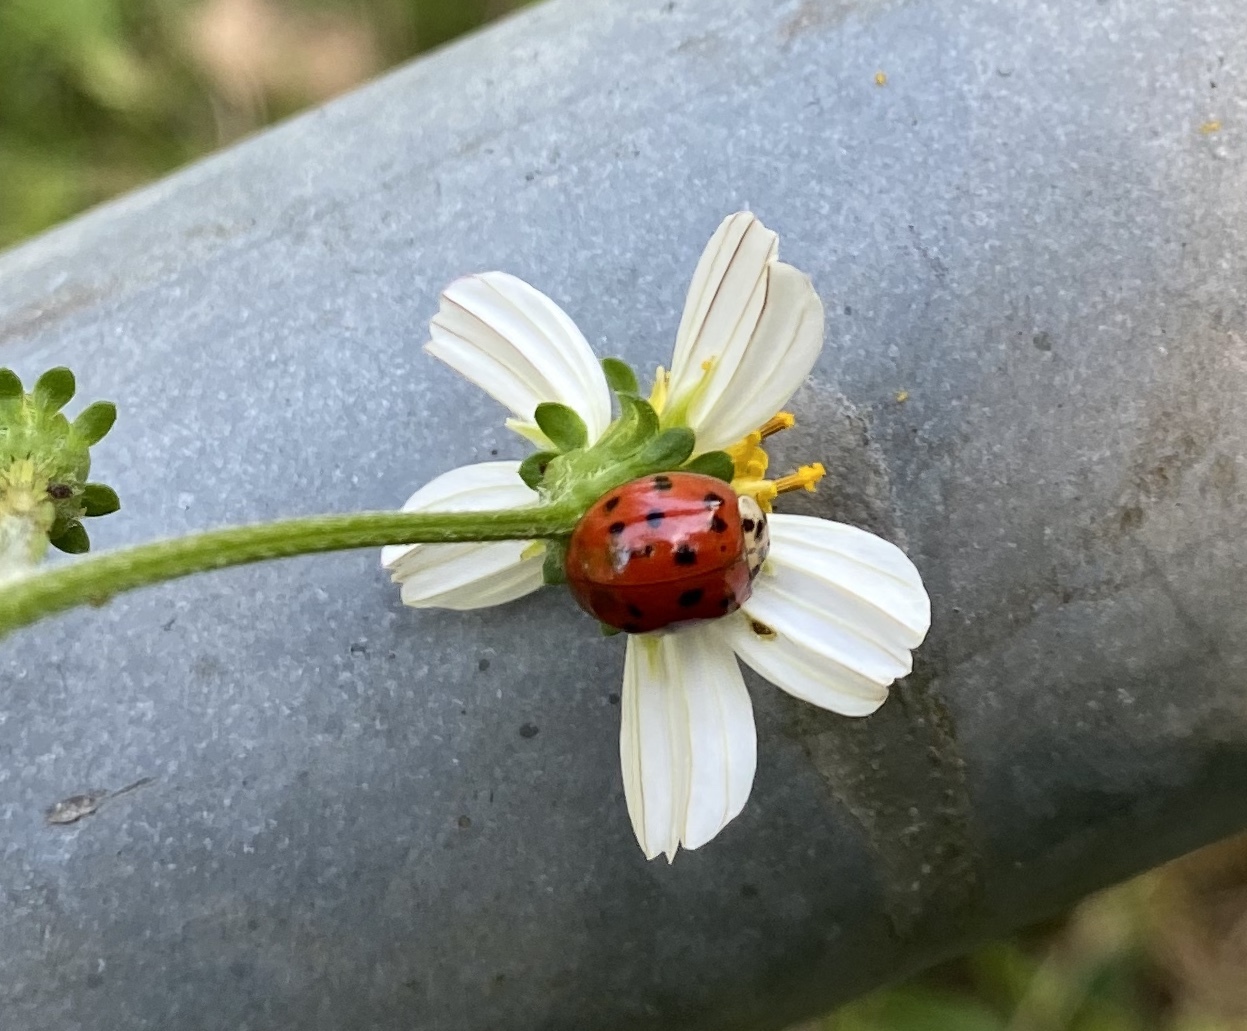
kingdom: Animalia
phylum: Arthropoda
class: Insecta
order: Coleoptera
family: Coccinellidae
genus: Harmonia
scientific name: Harmonia axyridis
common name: Harlequin ladybird
